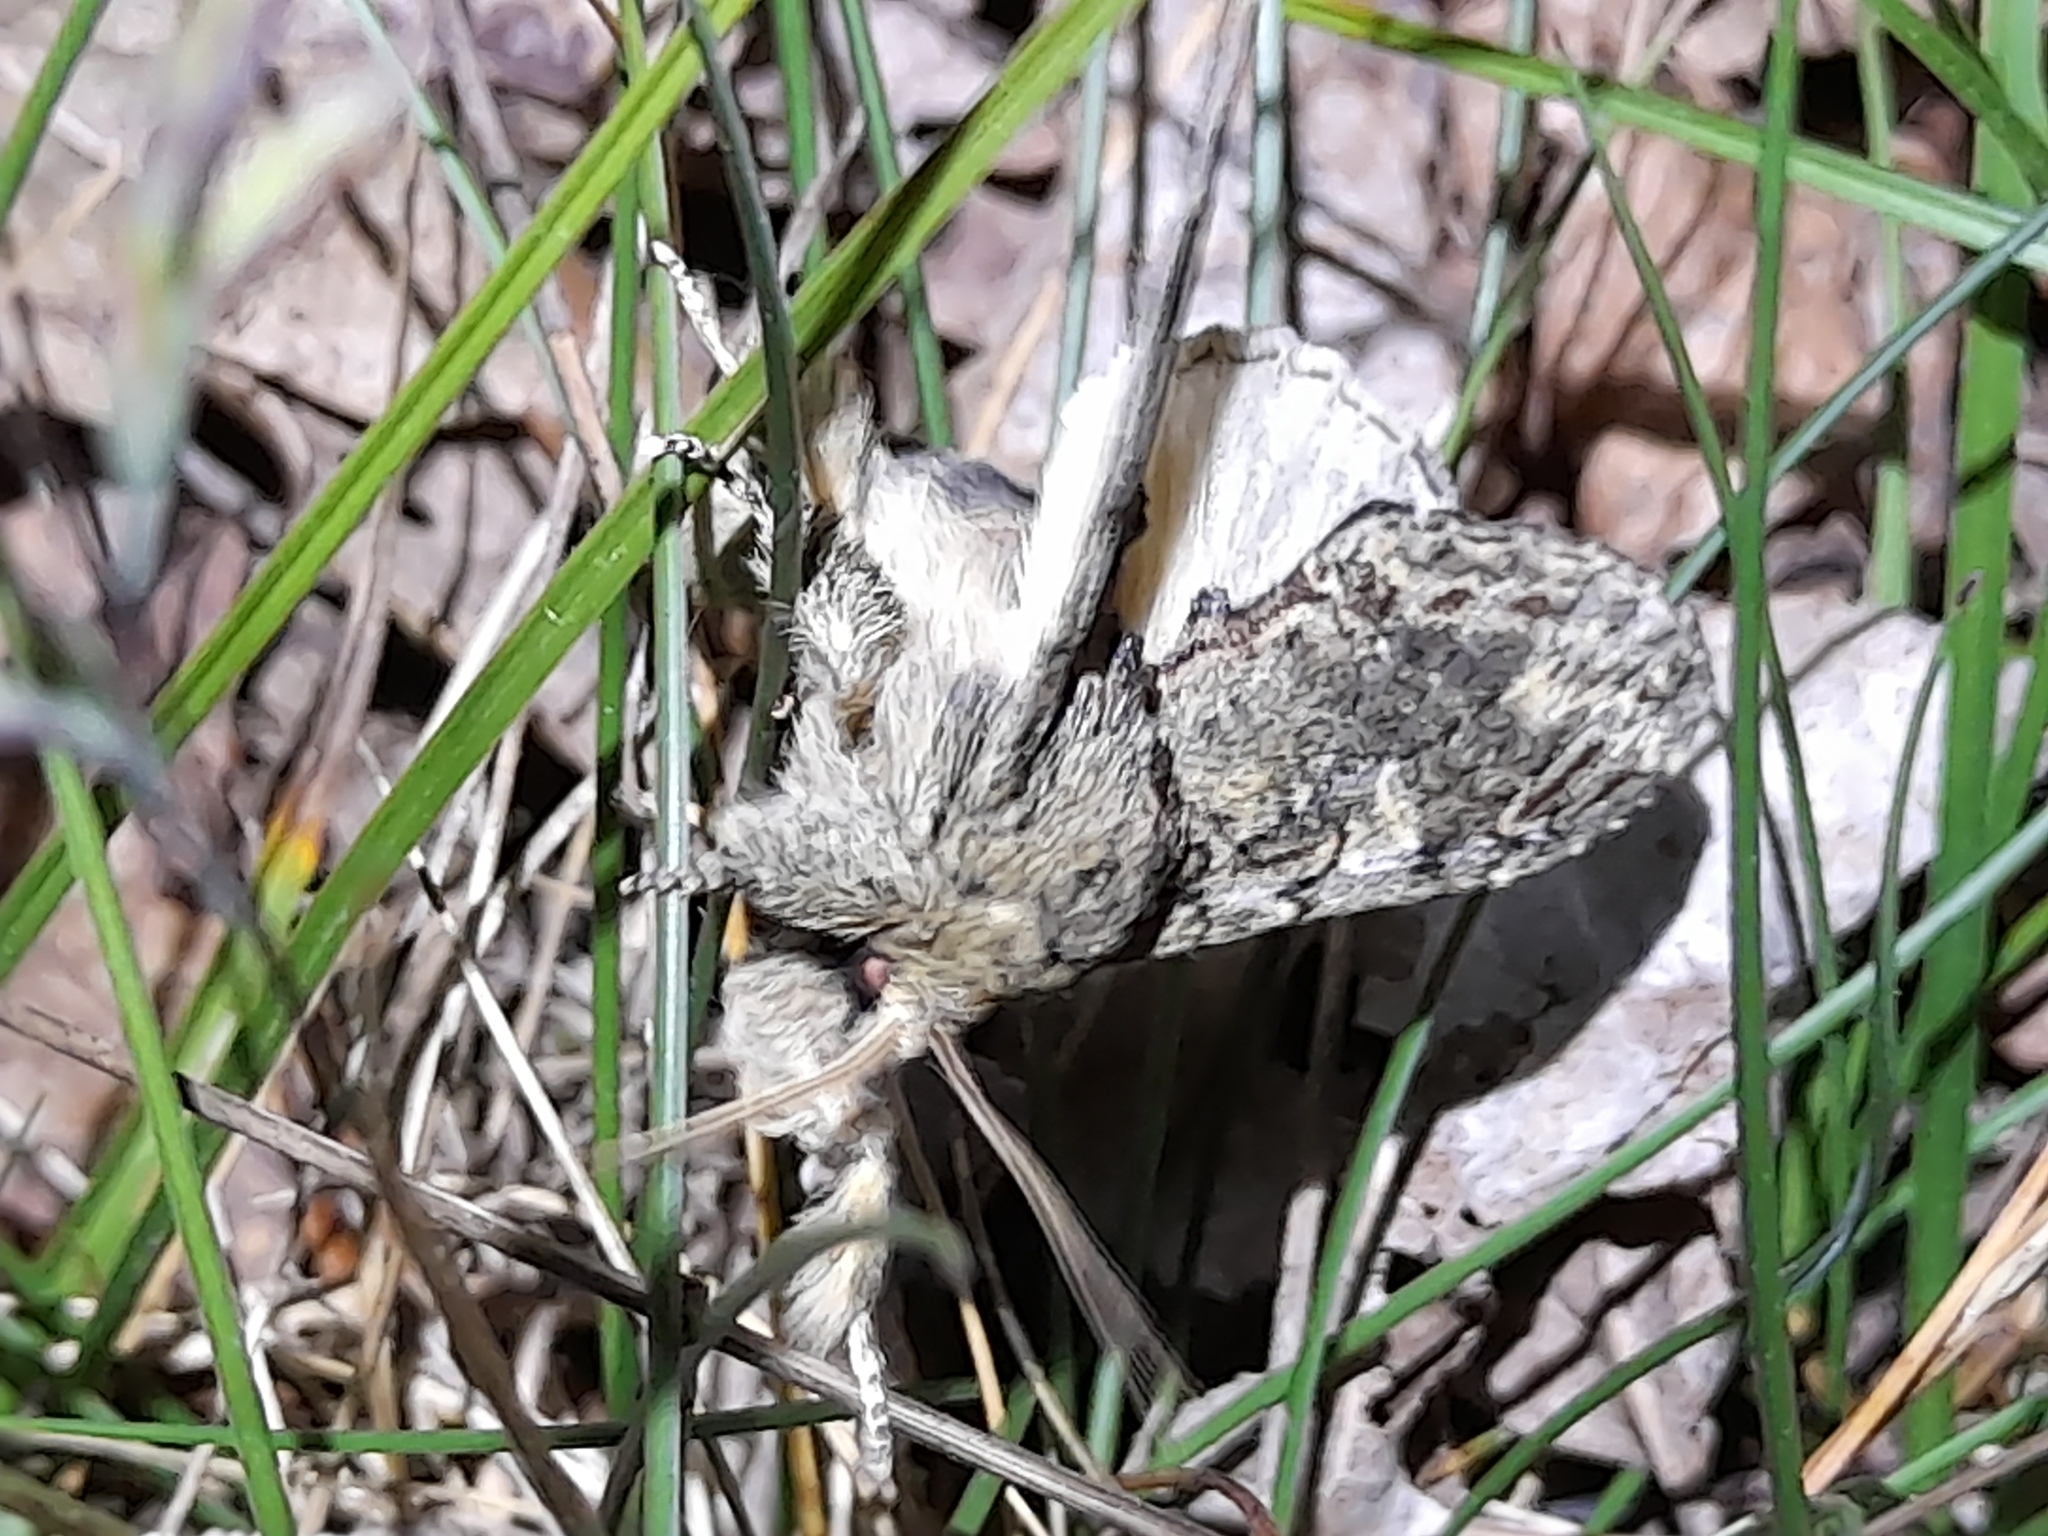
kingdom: Animalia
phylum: Arthropoda
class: Insecta
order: Lepidoptera
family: Notodontidae
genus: Peridea
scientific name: Peridea anceps
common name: Great prominent
